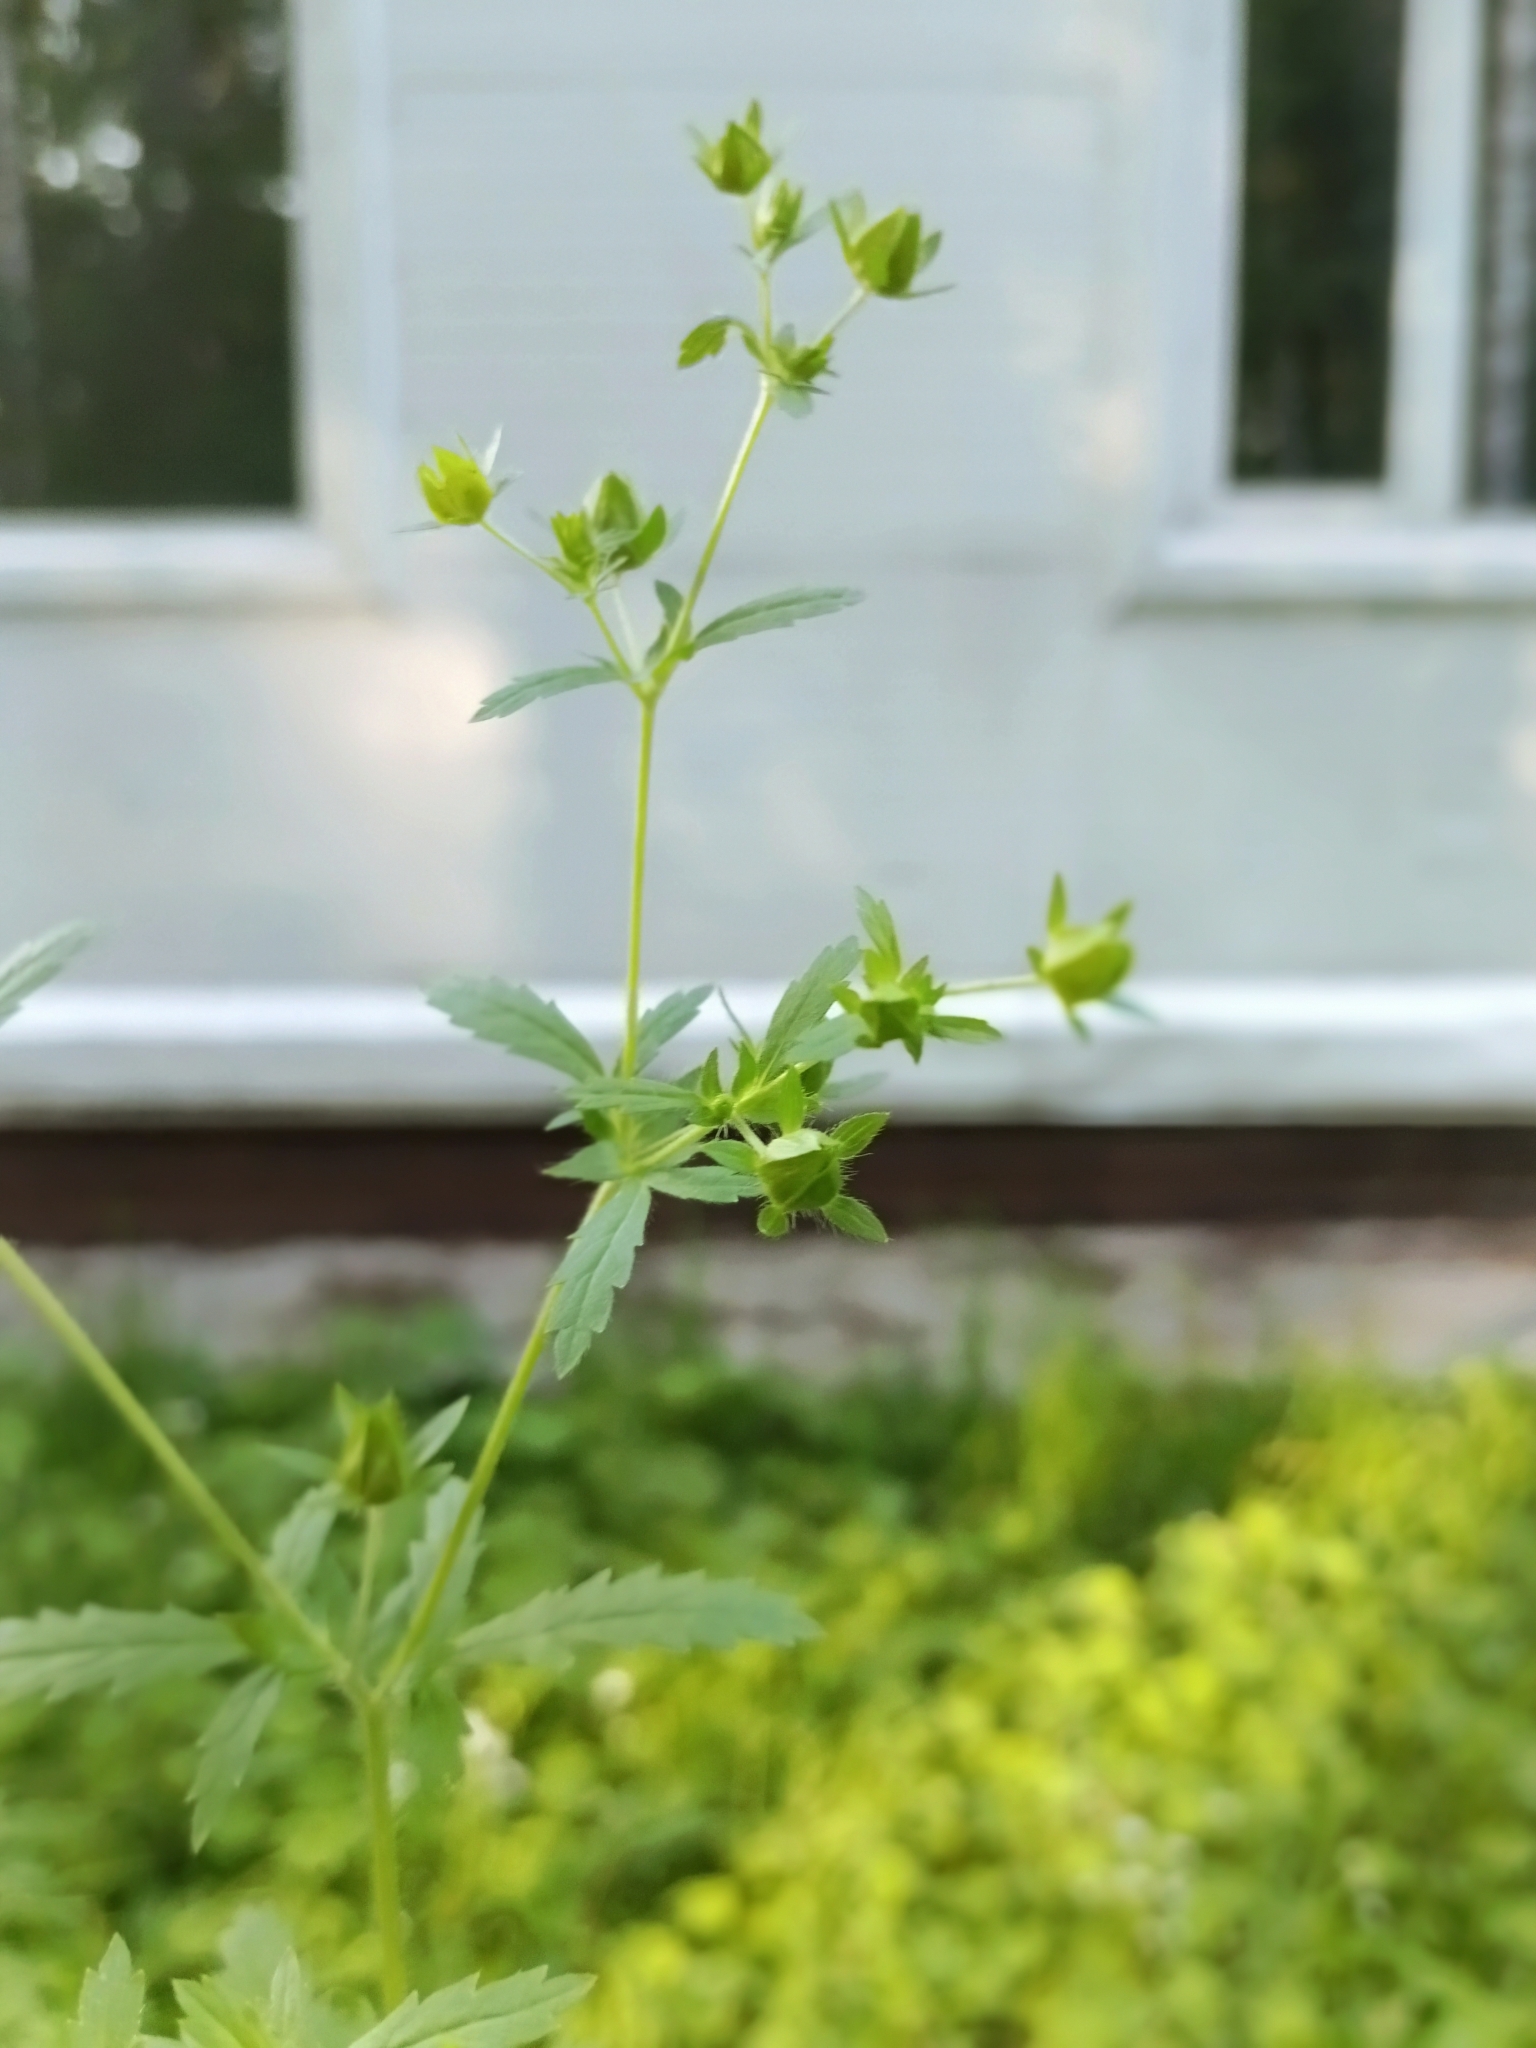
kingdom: Plantae
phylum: Tracheophyta
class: Magnoliopsida
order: Rosales
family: Rosaceae
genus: Argentina
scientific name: Argentina anserina
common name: Common silverweed
